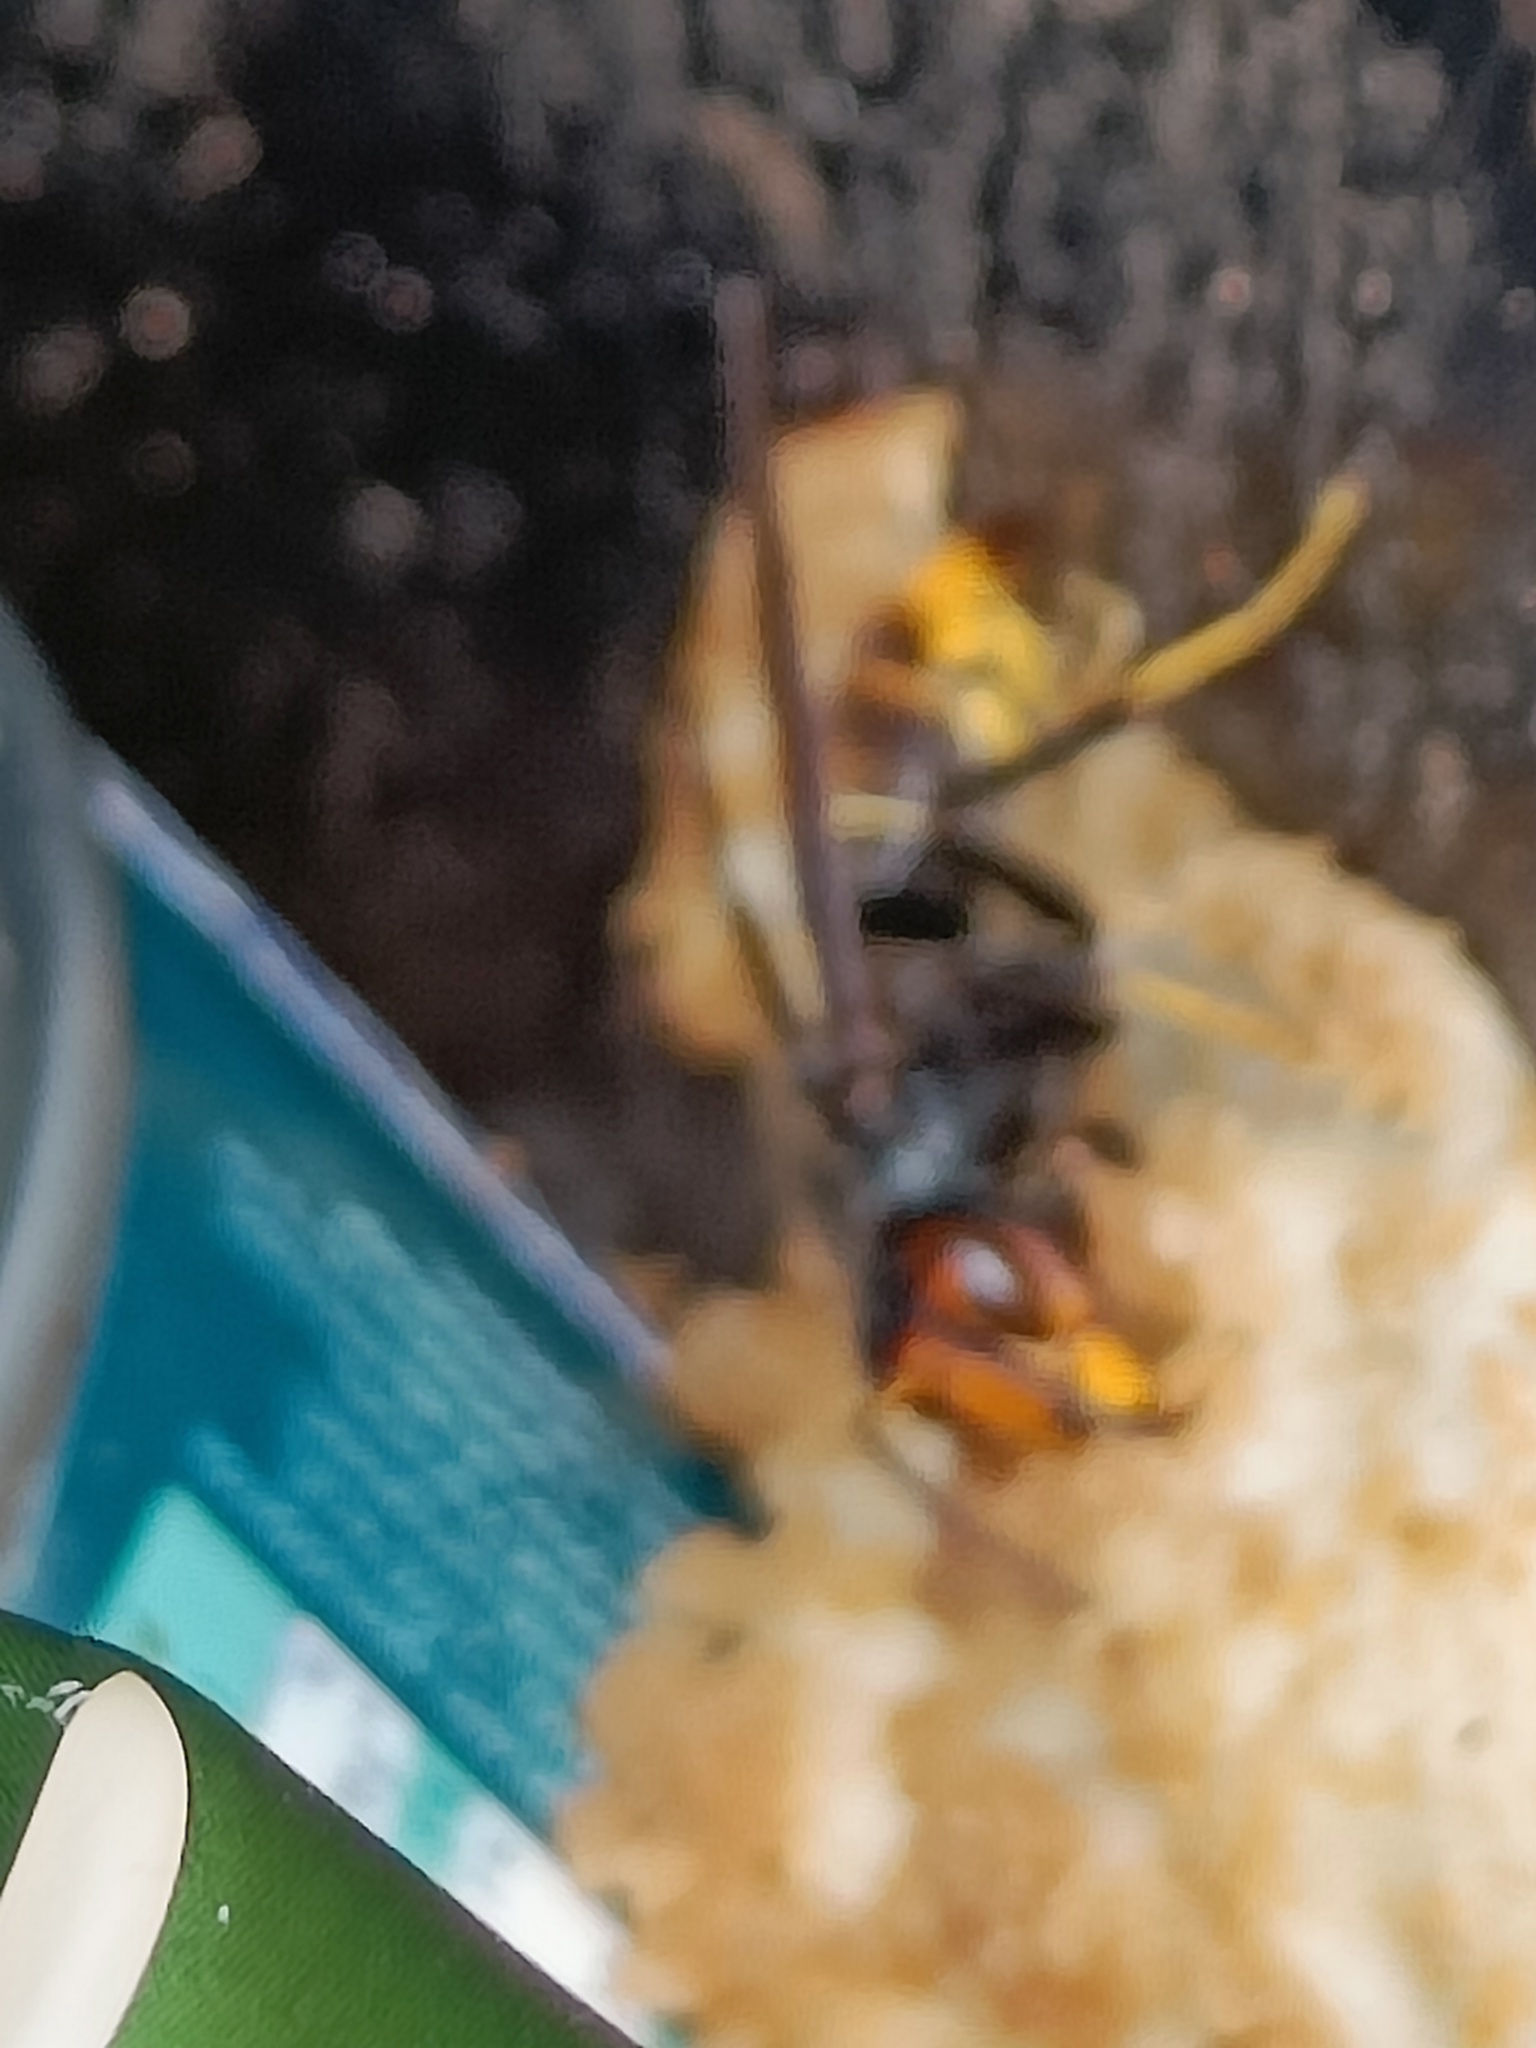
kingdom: Animalia
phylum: Arthropoda
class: Insecta
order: Hymenoptera
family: Vespidae
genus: Vespa
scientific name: Vespa velutina
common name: Asian hornet
